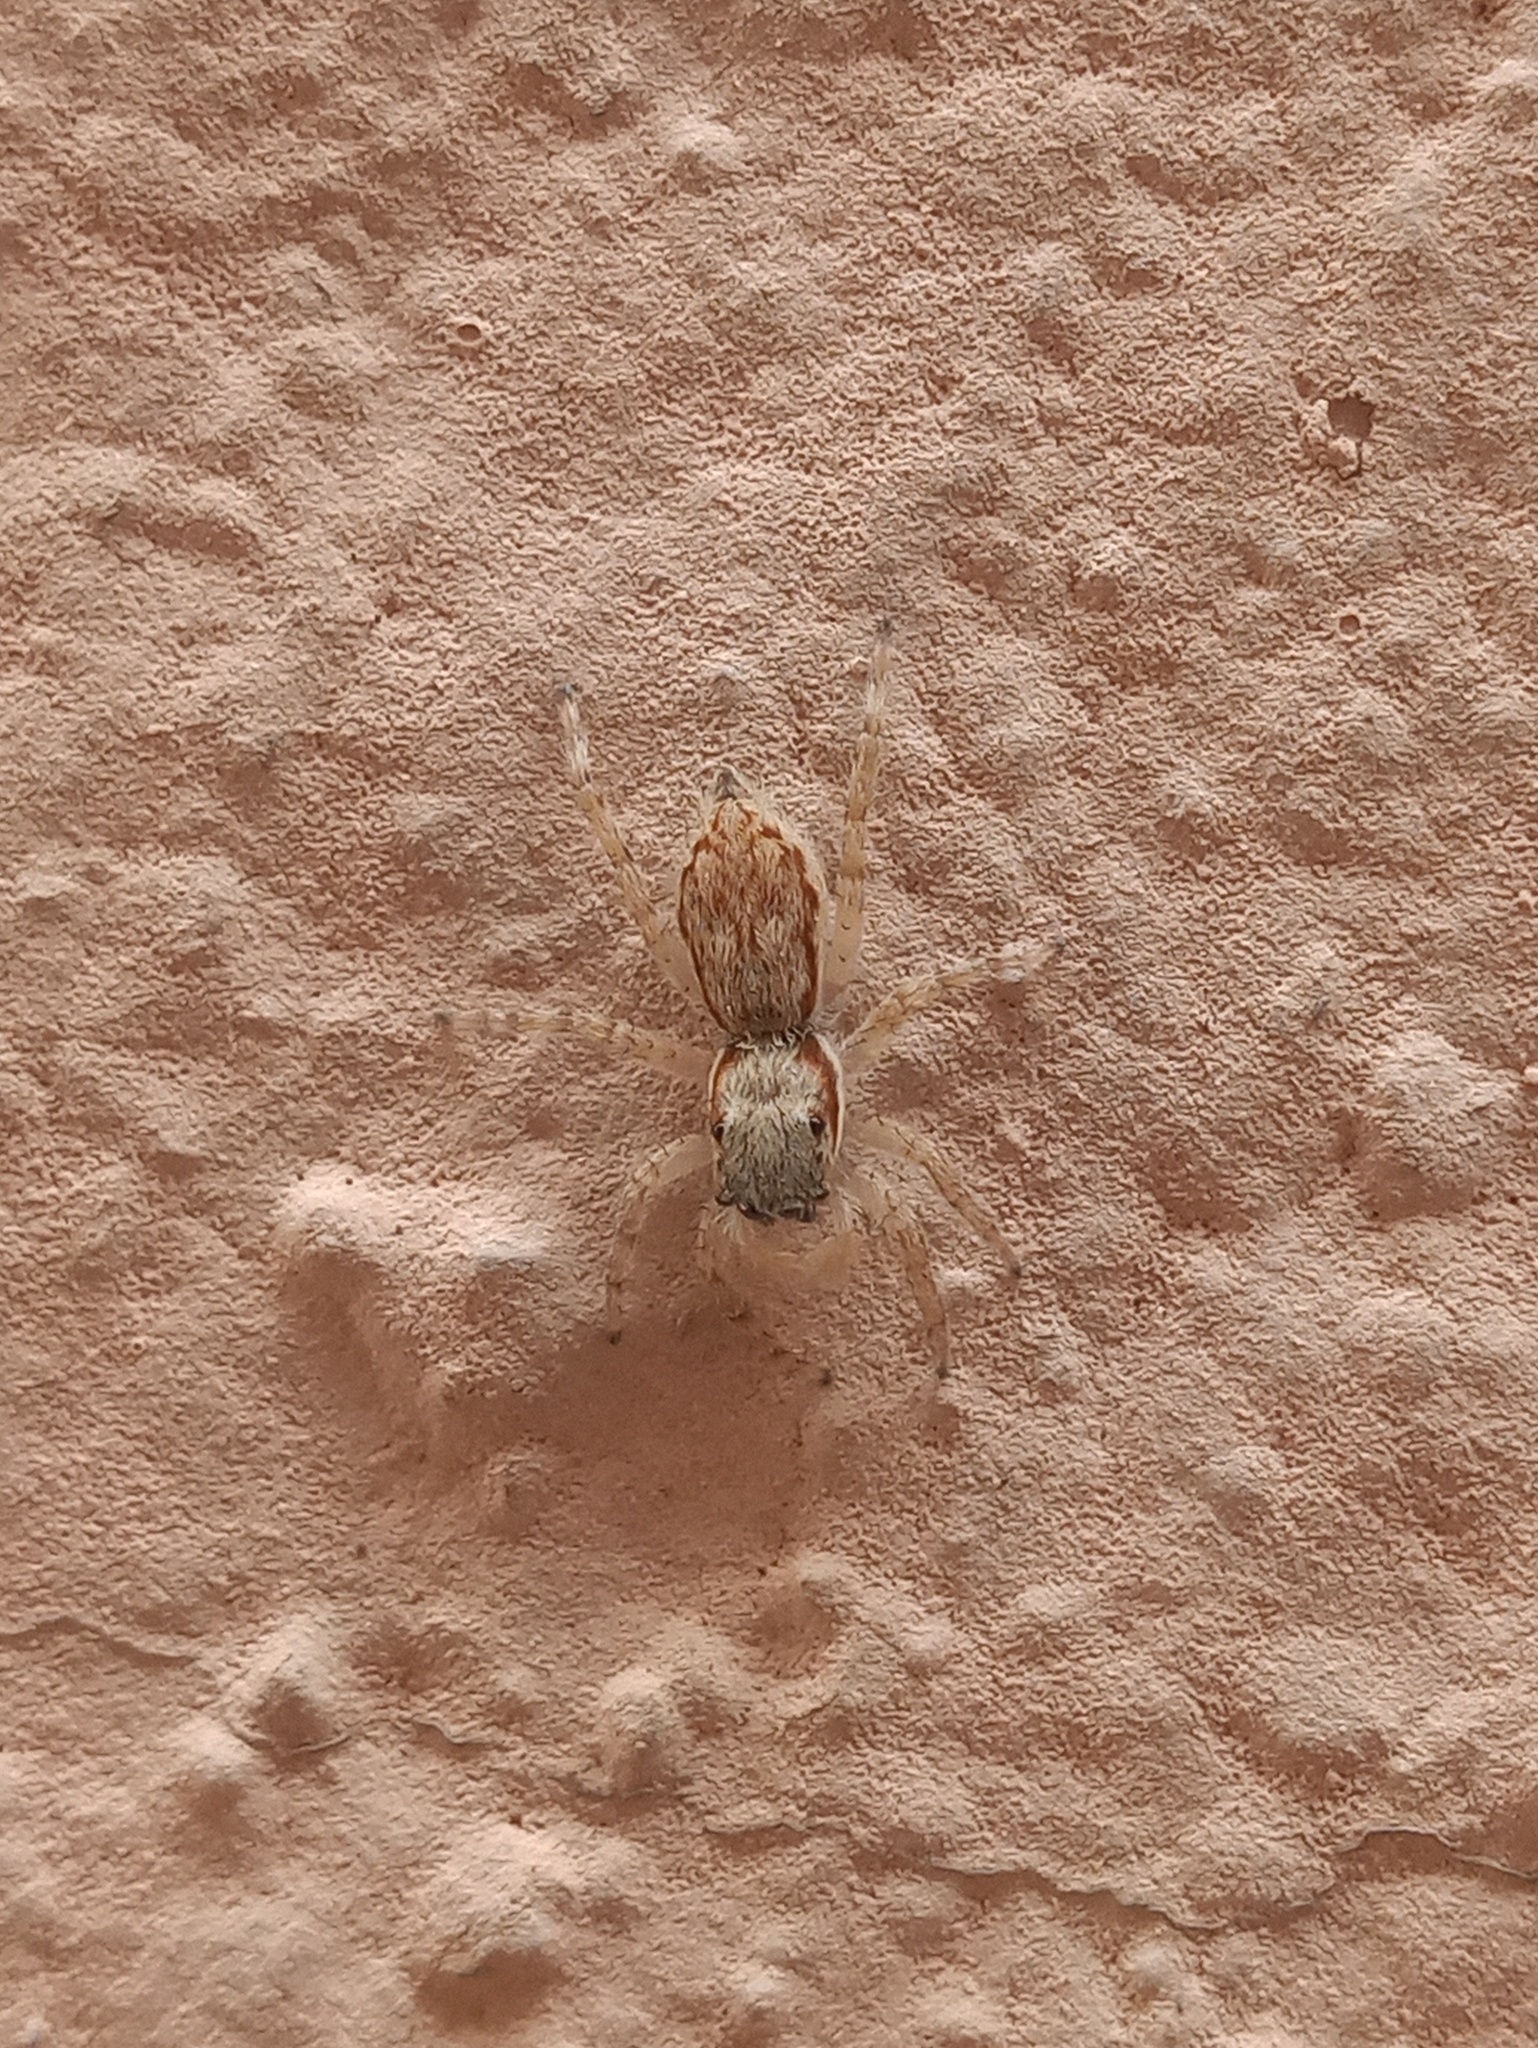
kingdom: Animalia
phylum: Arthropoda
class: Arachnida
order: Araneae
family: Salticidae
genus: Menemerus
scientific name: Menemerus bivittatus
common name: Gray wall jumper
